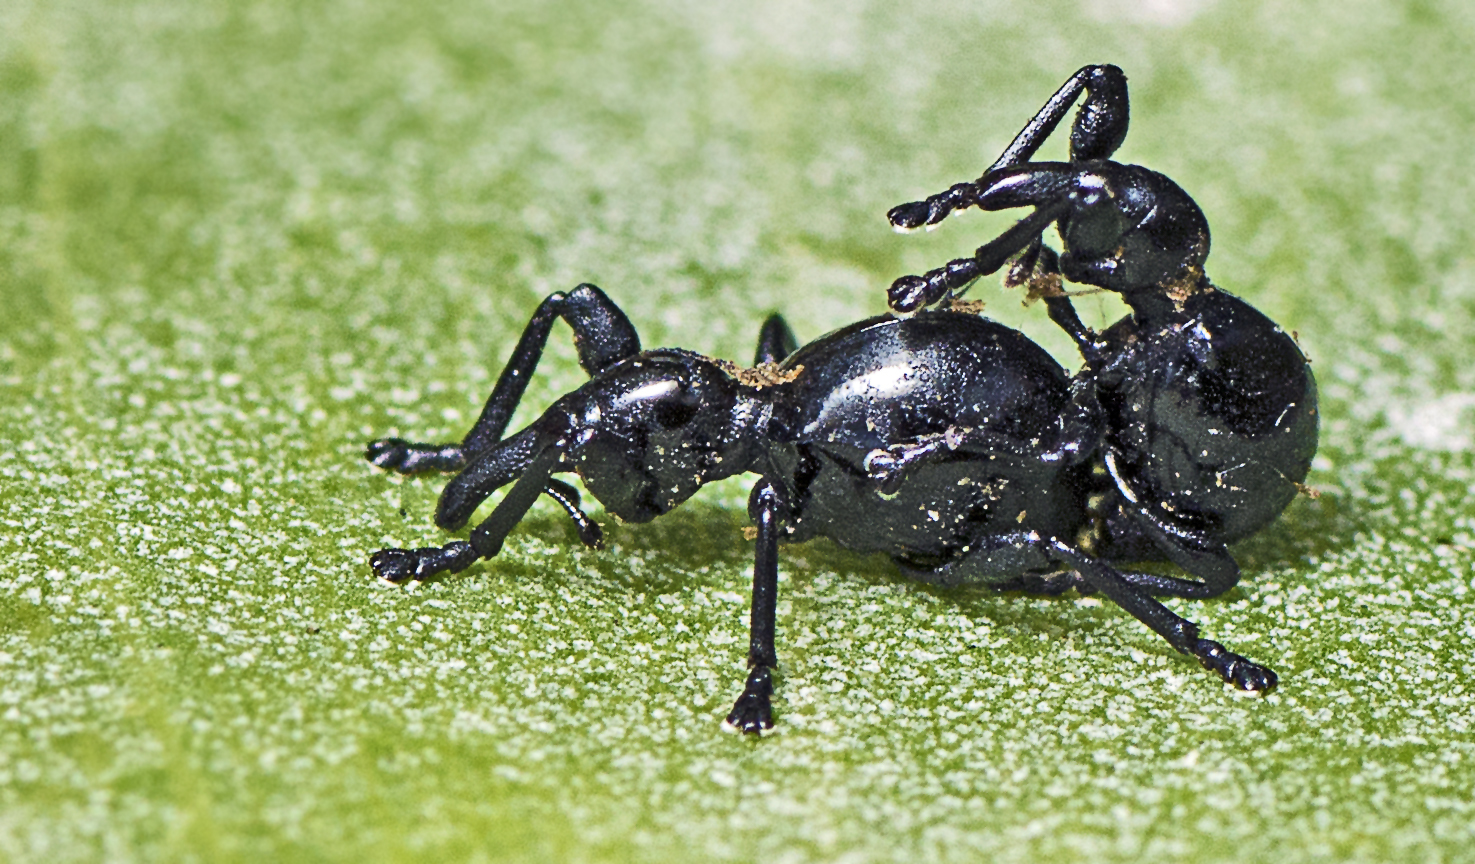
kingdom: Animalia
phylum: Arthropoda
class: Insecta
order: Coleoptera
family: Brentidae
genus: Rhynolaccus
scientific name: Rhynolaccus formicarius
